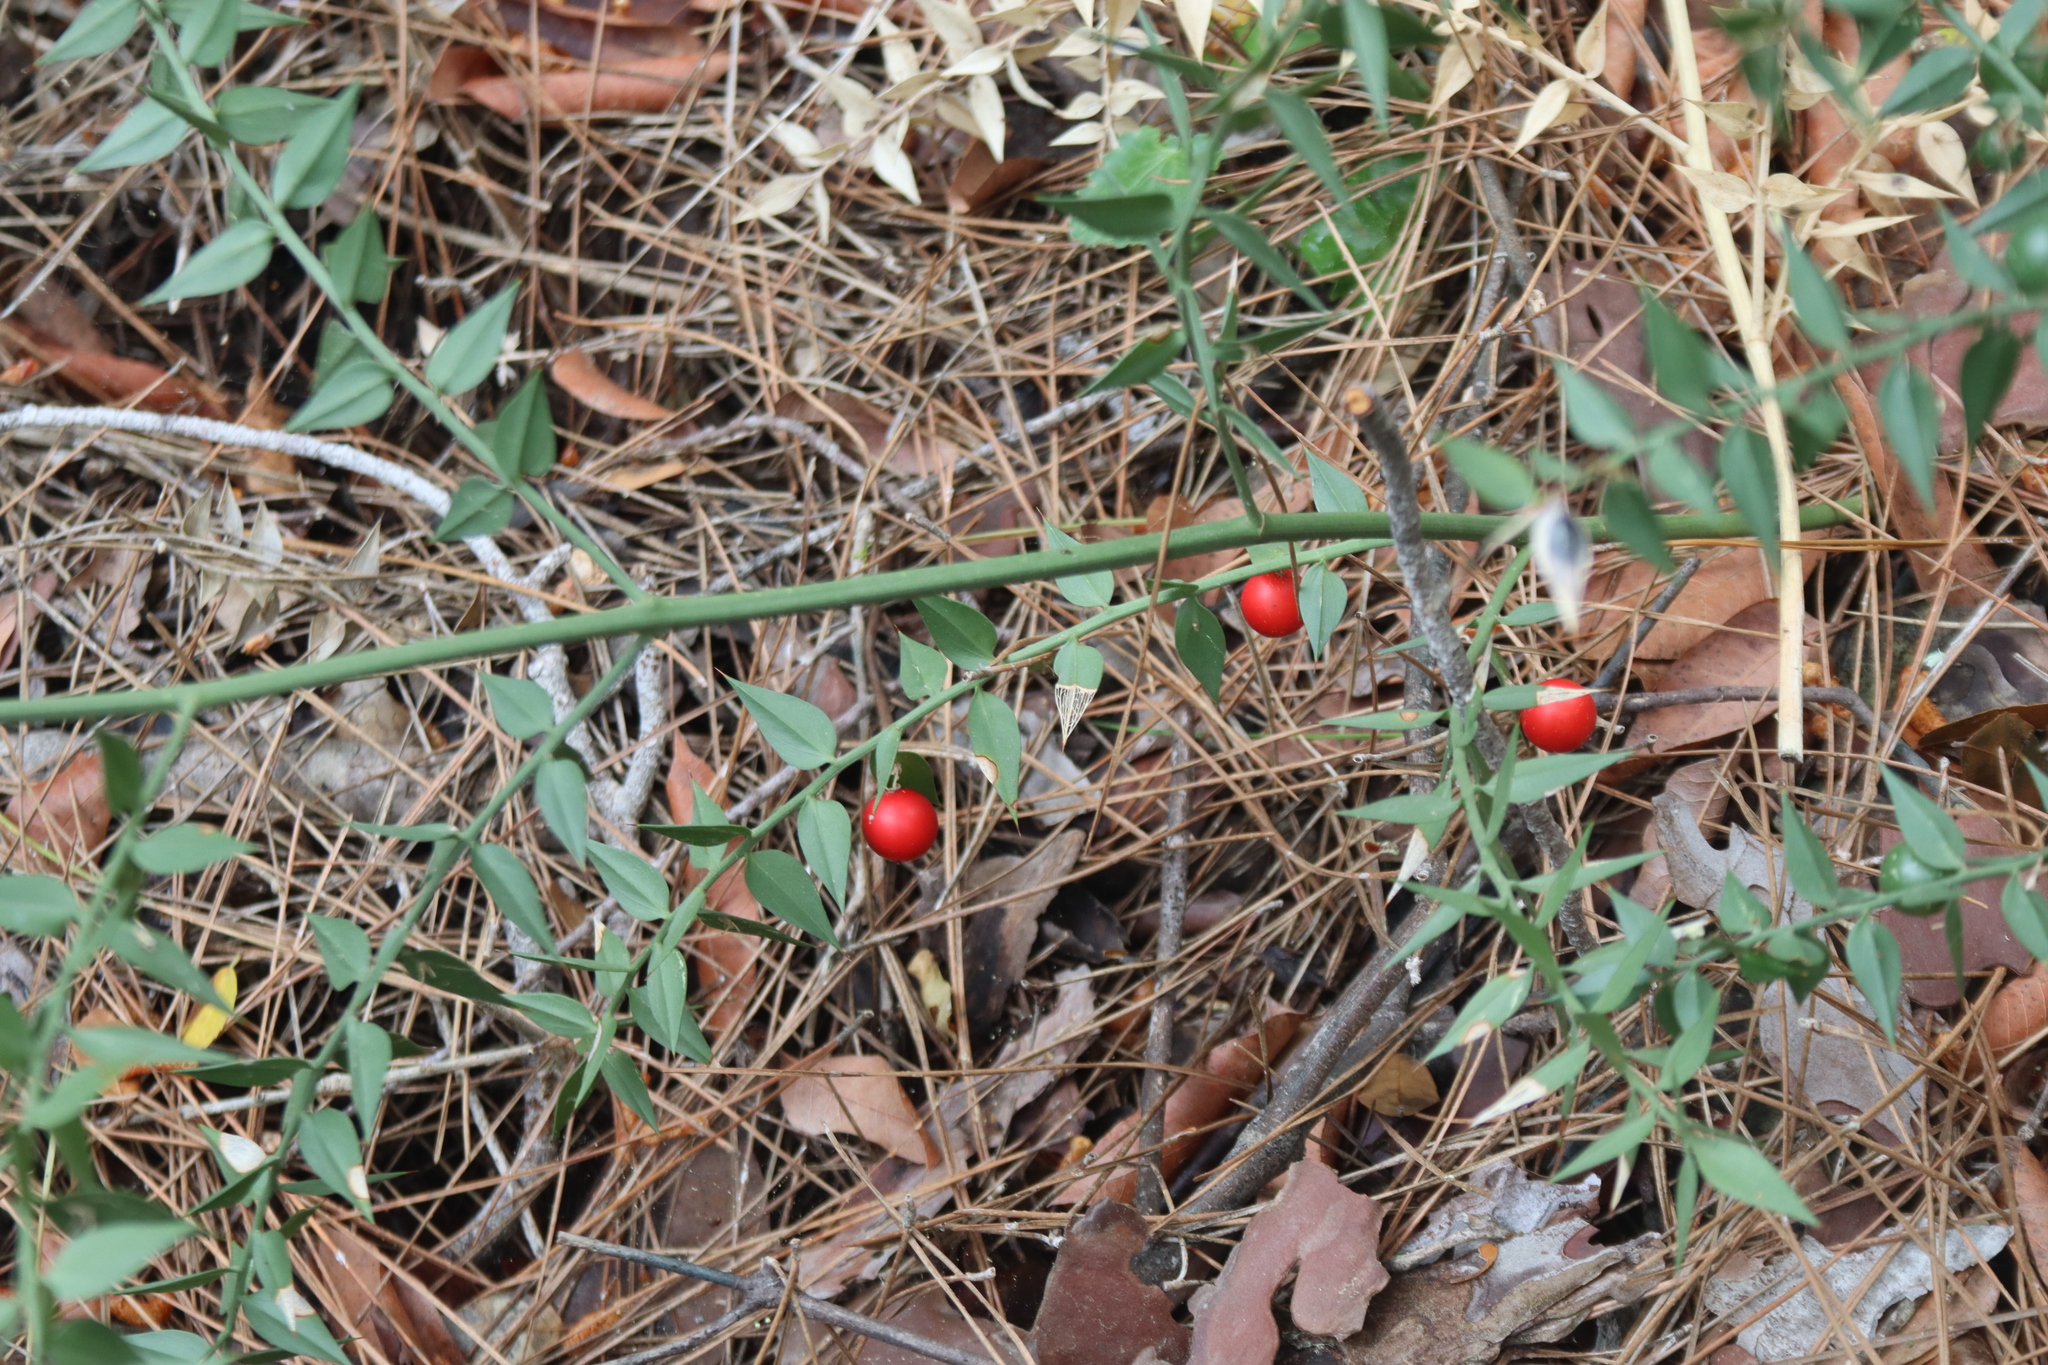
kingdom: Plantae
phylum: Tracheophyta
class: Liliopsida
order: Asparagales
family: Asparagaceae
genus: Ruscus
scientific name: Ruscus aculeatus
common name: Butcher's-broom
